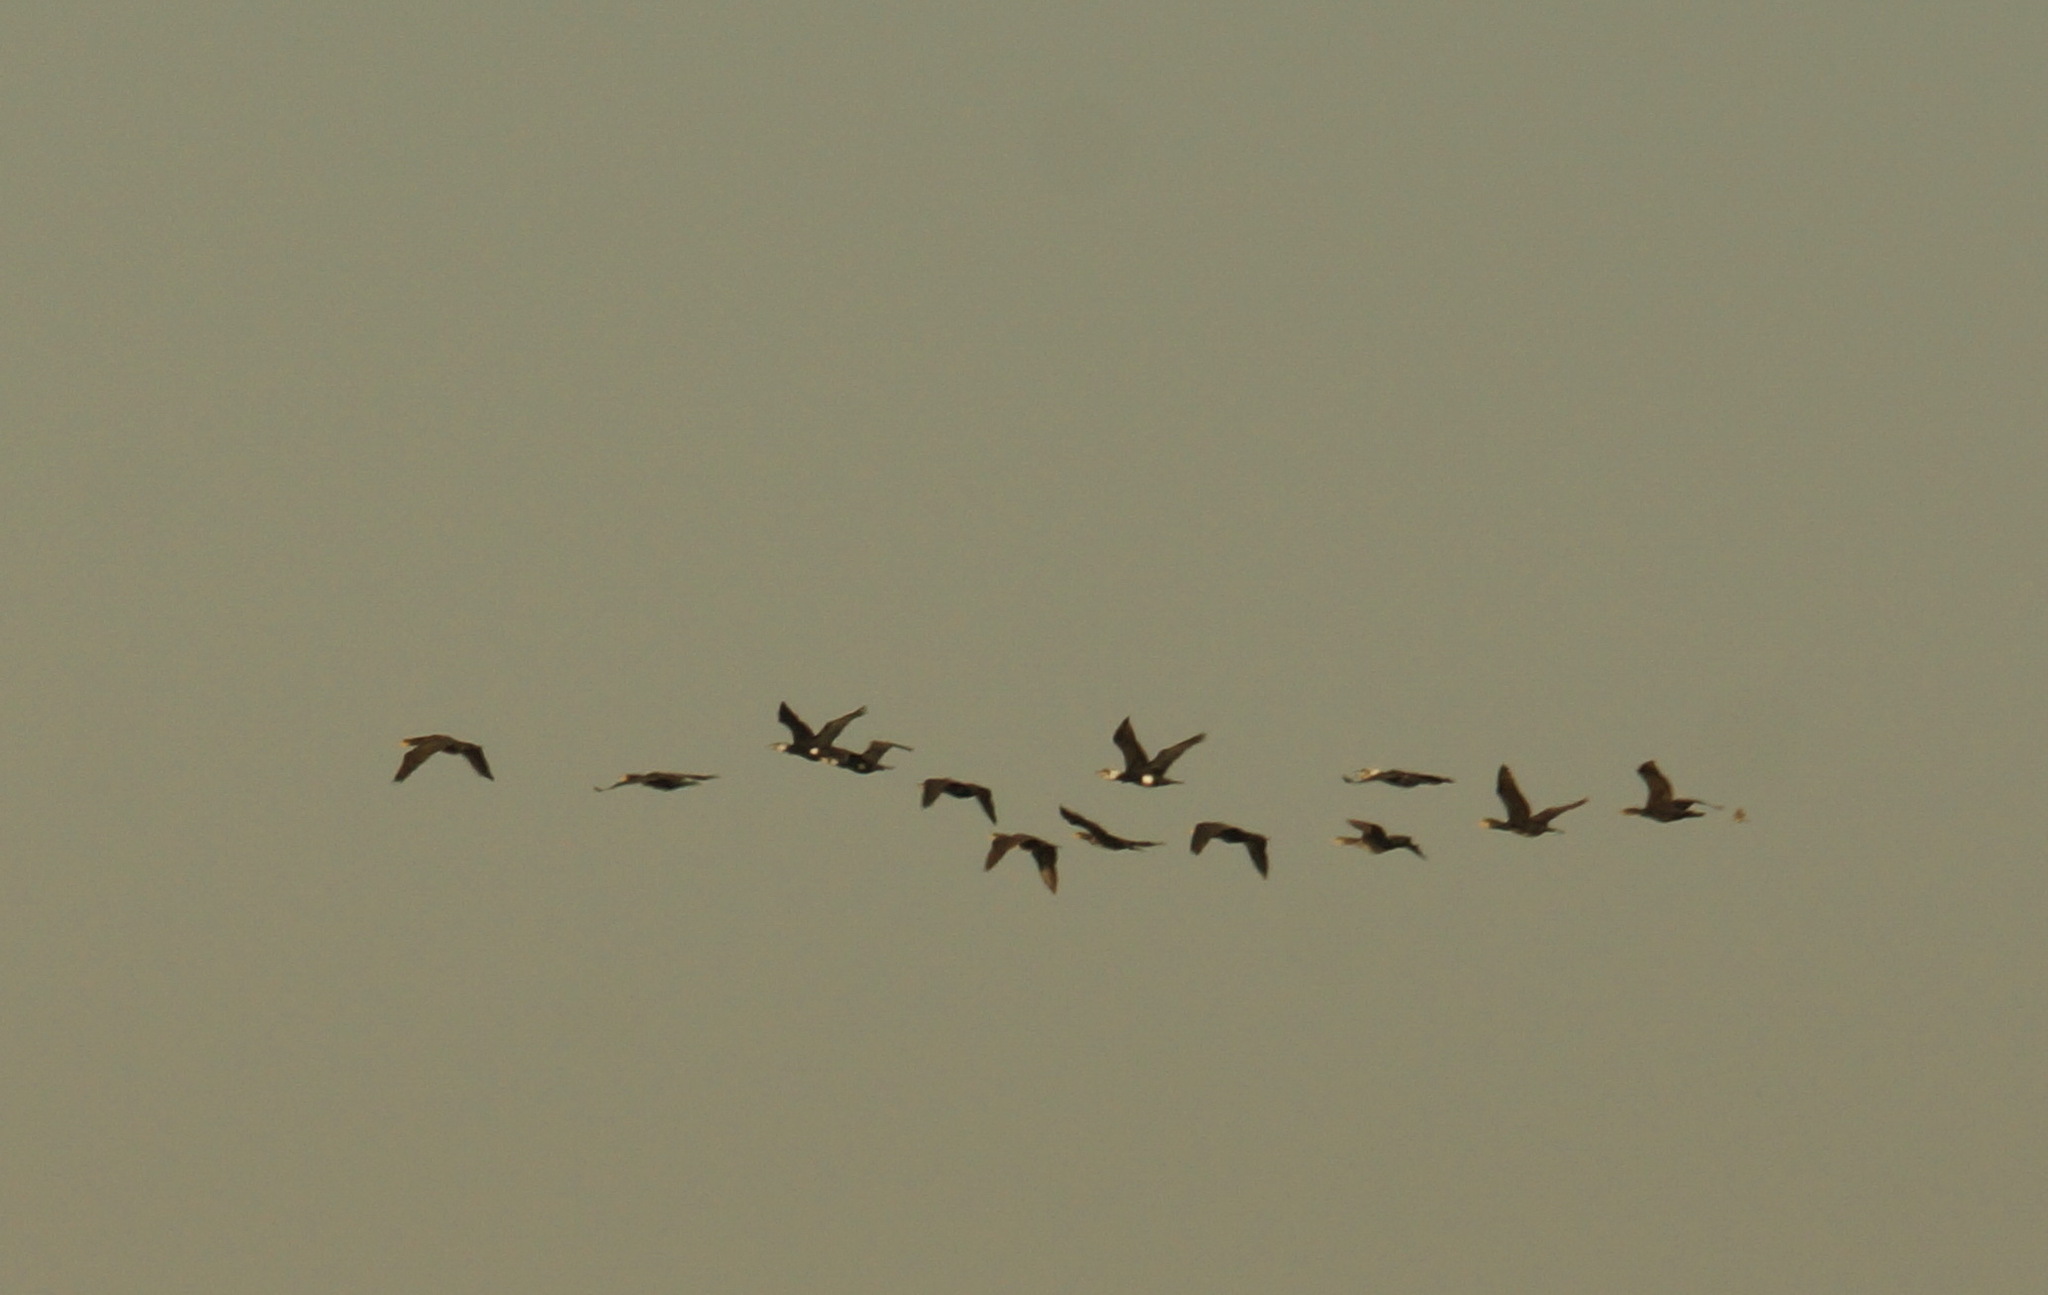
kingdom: Animalia
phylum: Chordata
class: Aves
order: Suliformes
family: Phalacrocoracidae
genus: Phalacrocorax
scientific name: Phalacrocorax carbo
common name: Great cormorant
